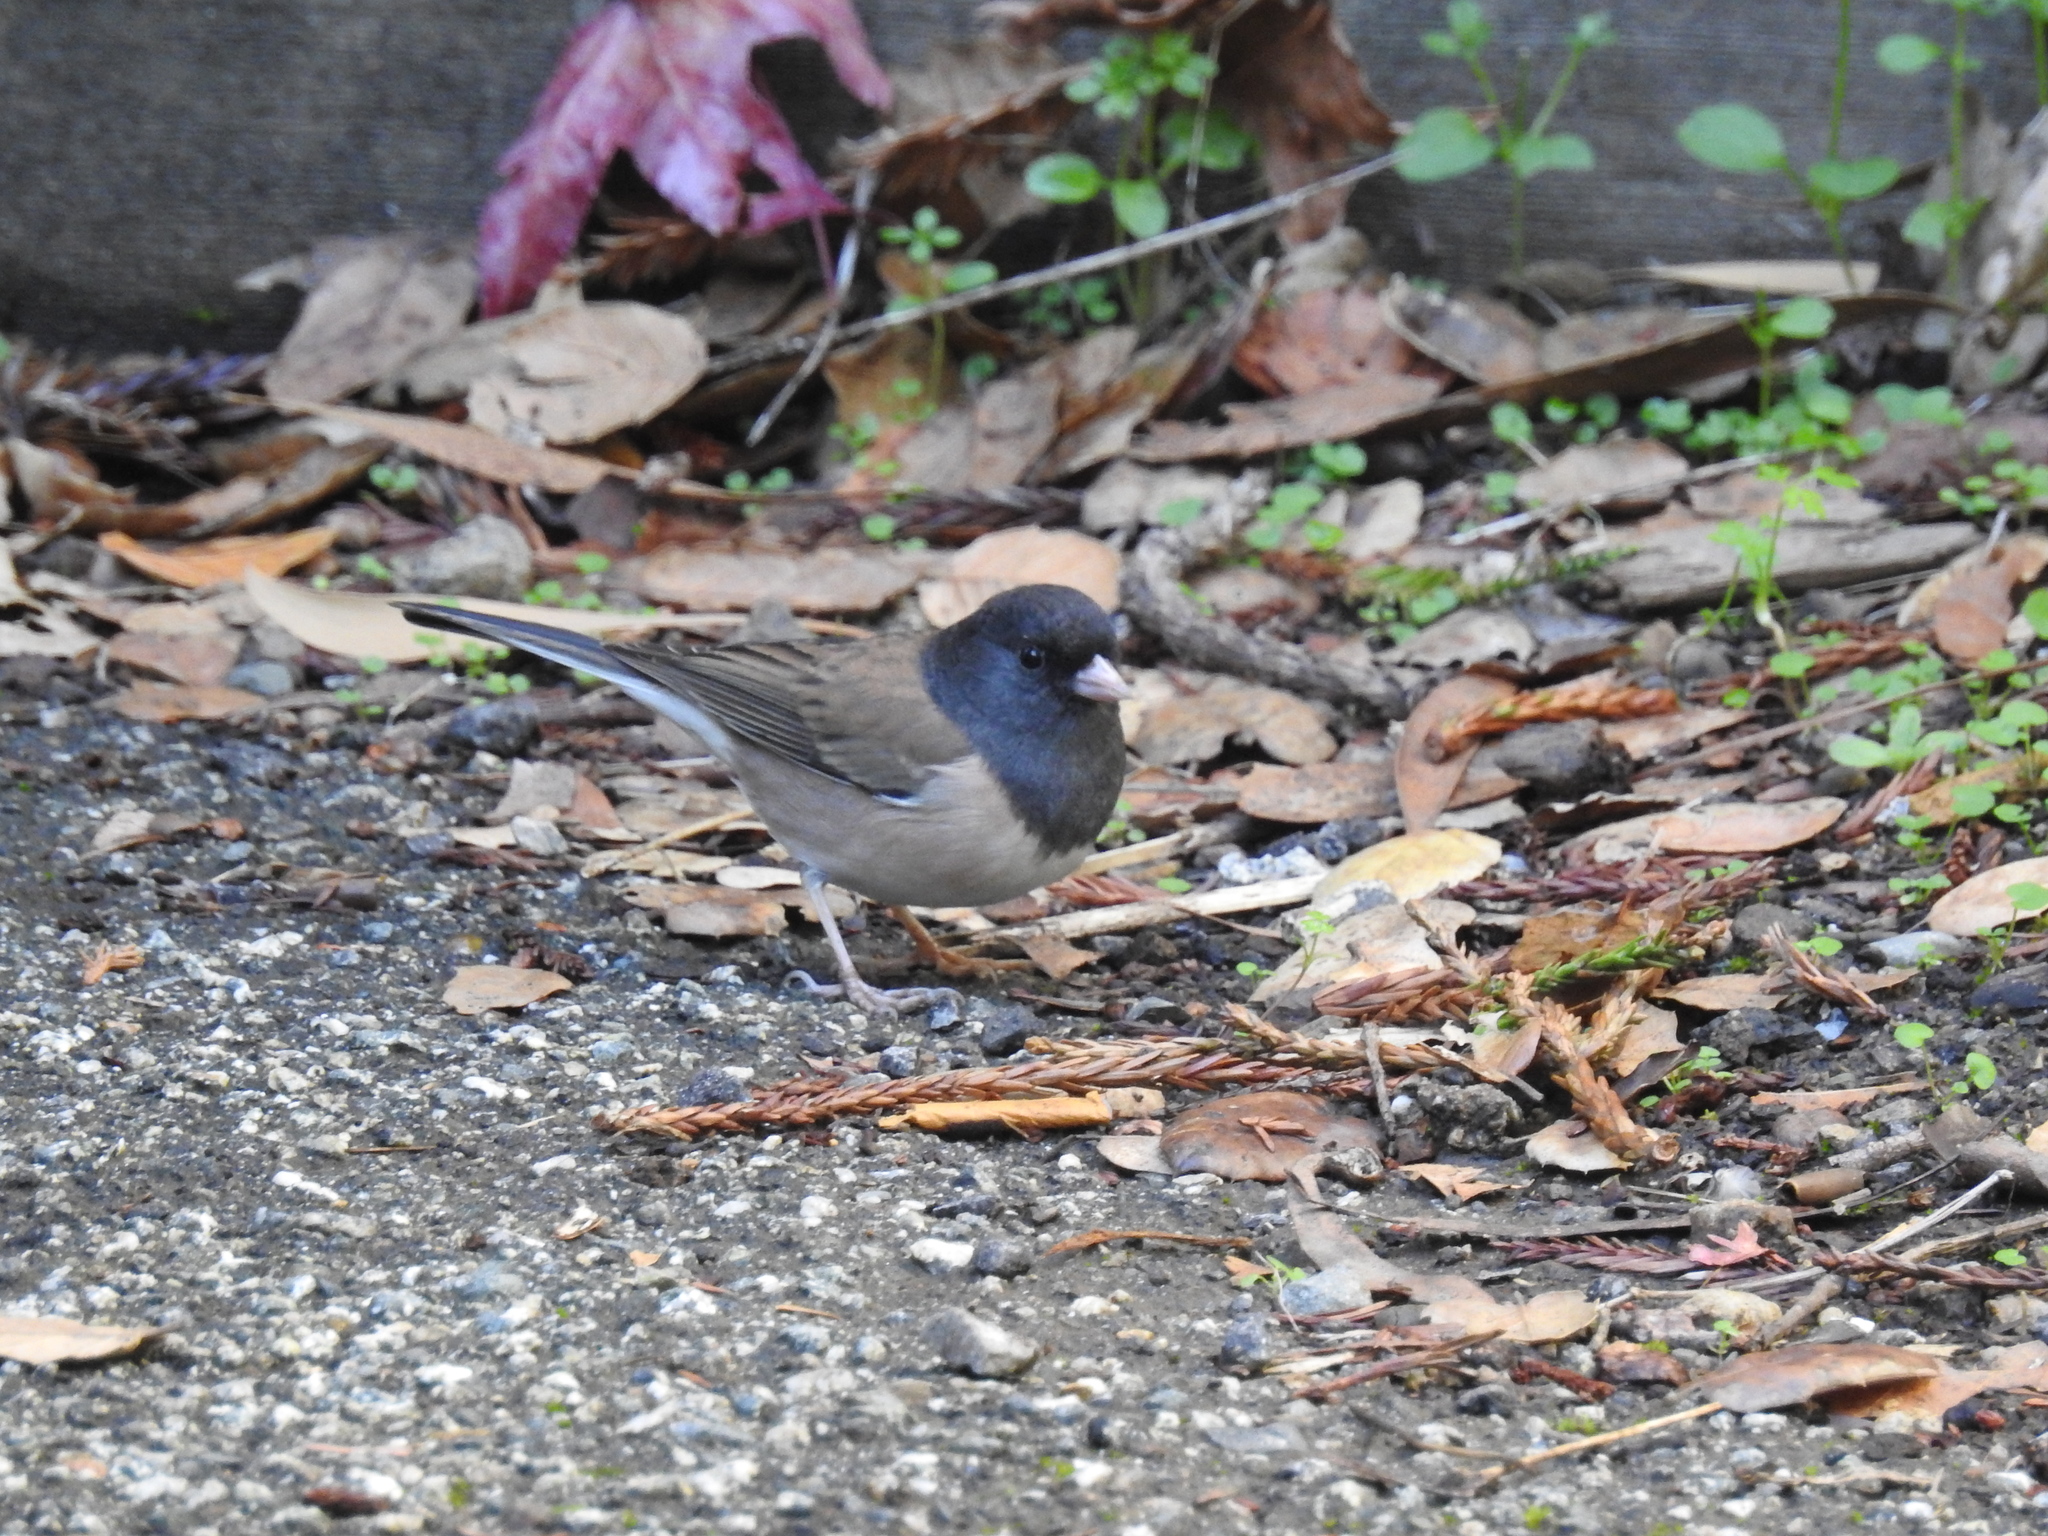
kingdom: Animalia
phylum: Chordata
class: Aves
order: Passeriformes
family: Passerellidae
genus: Junco
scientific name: Junco hyemalis
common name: Dark-eyed junco
